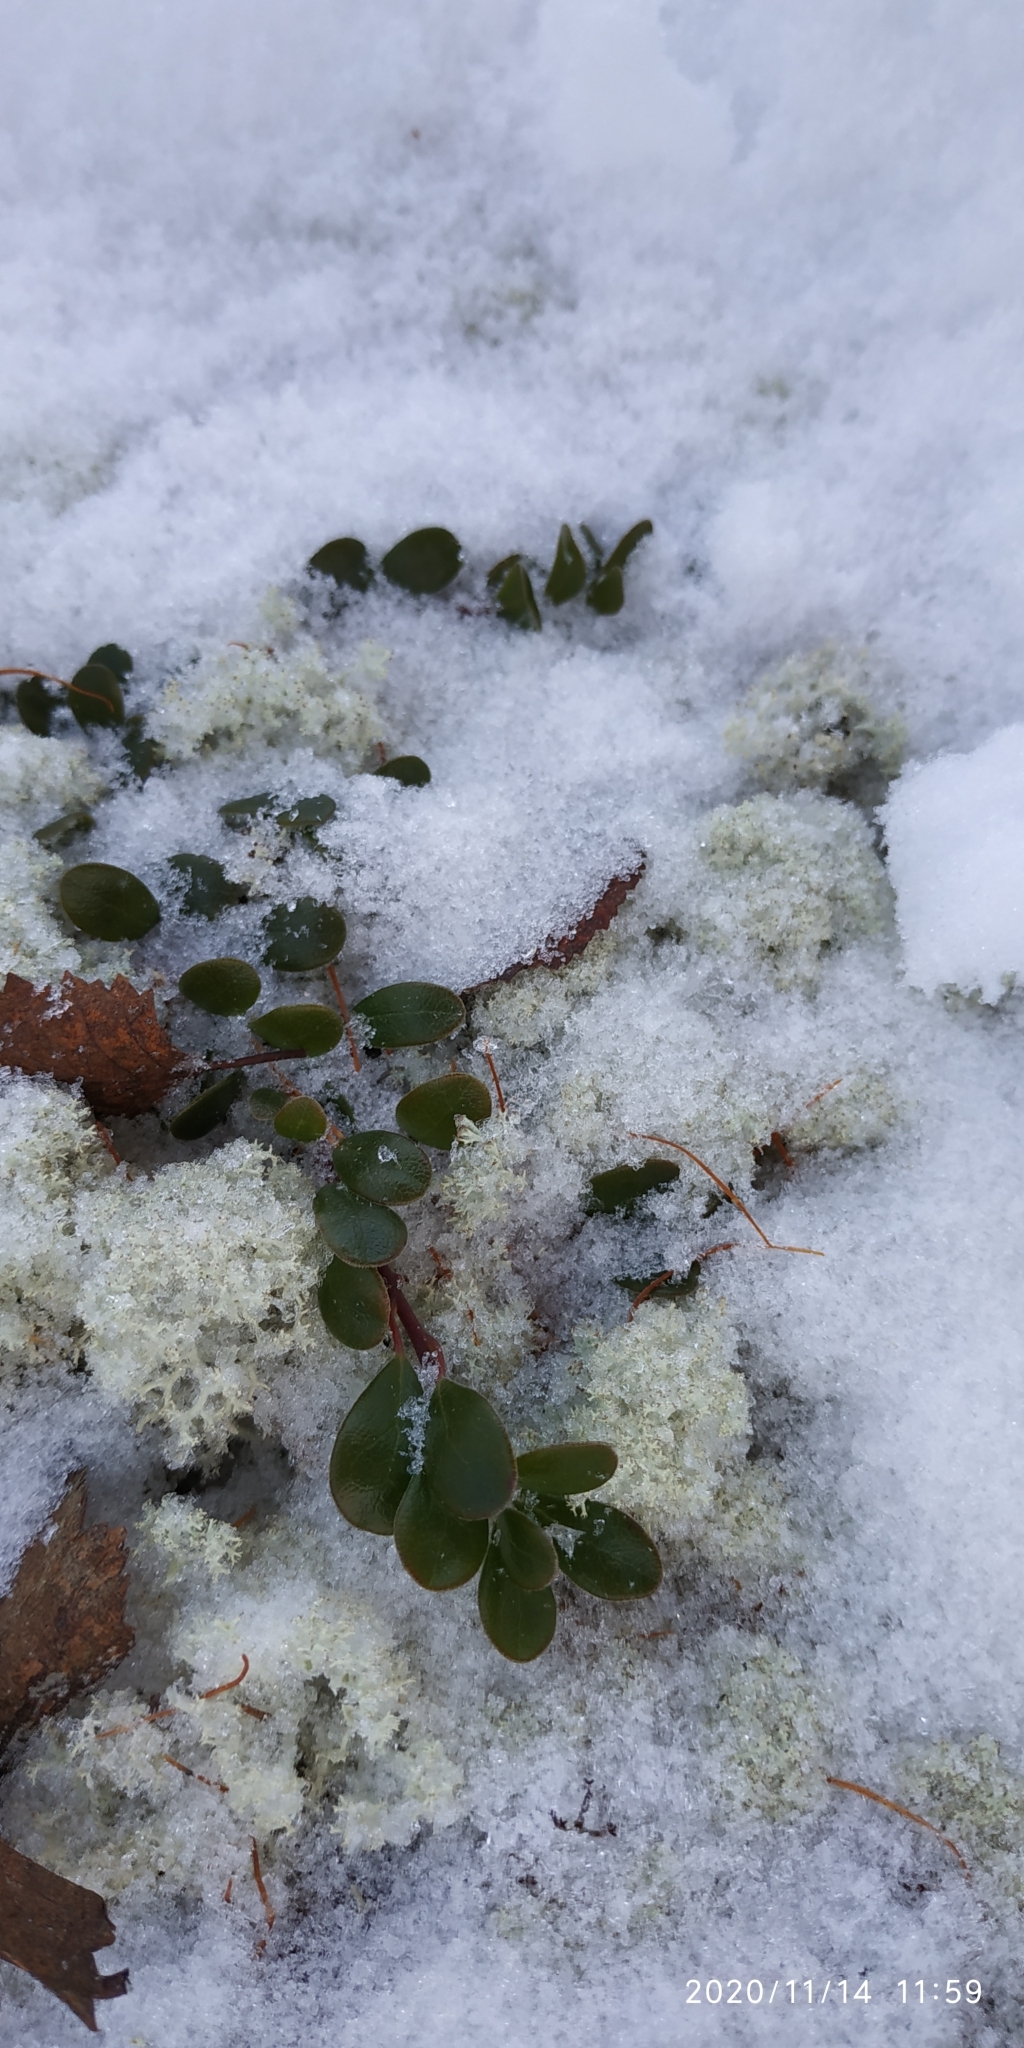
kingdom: Plantae
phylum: Tracheophyta
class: Magnoliopsida
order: Ericales
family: Ericaceae
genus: Arctostaphylos
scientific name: Arctostaphylos uva-ursi
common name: Bearberry
